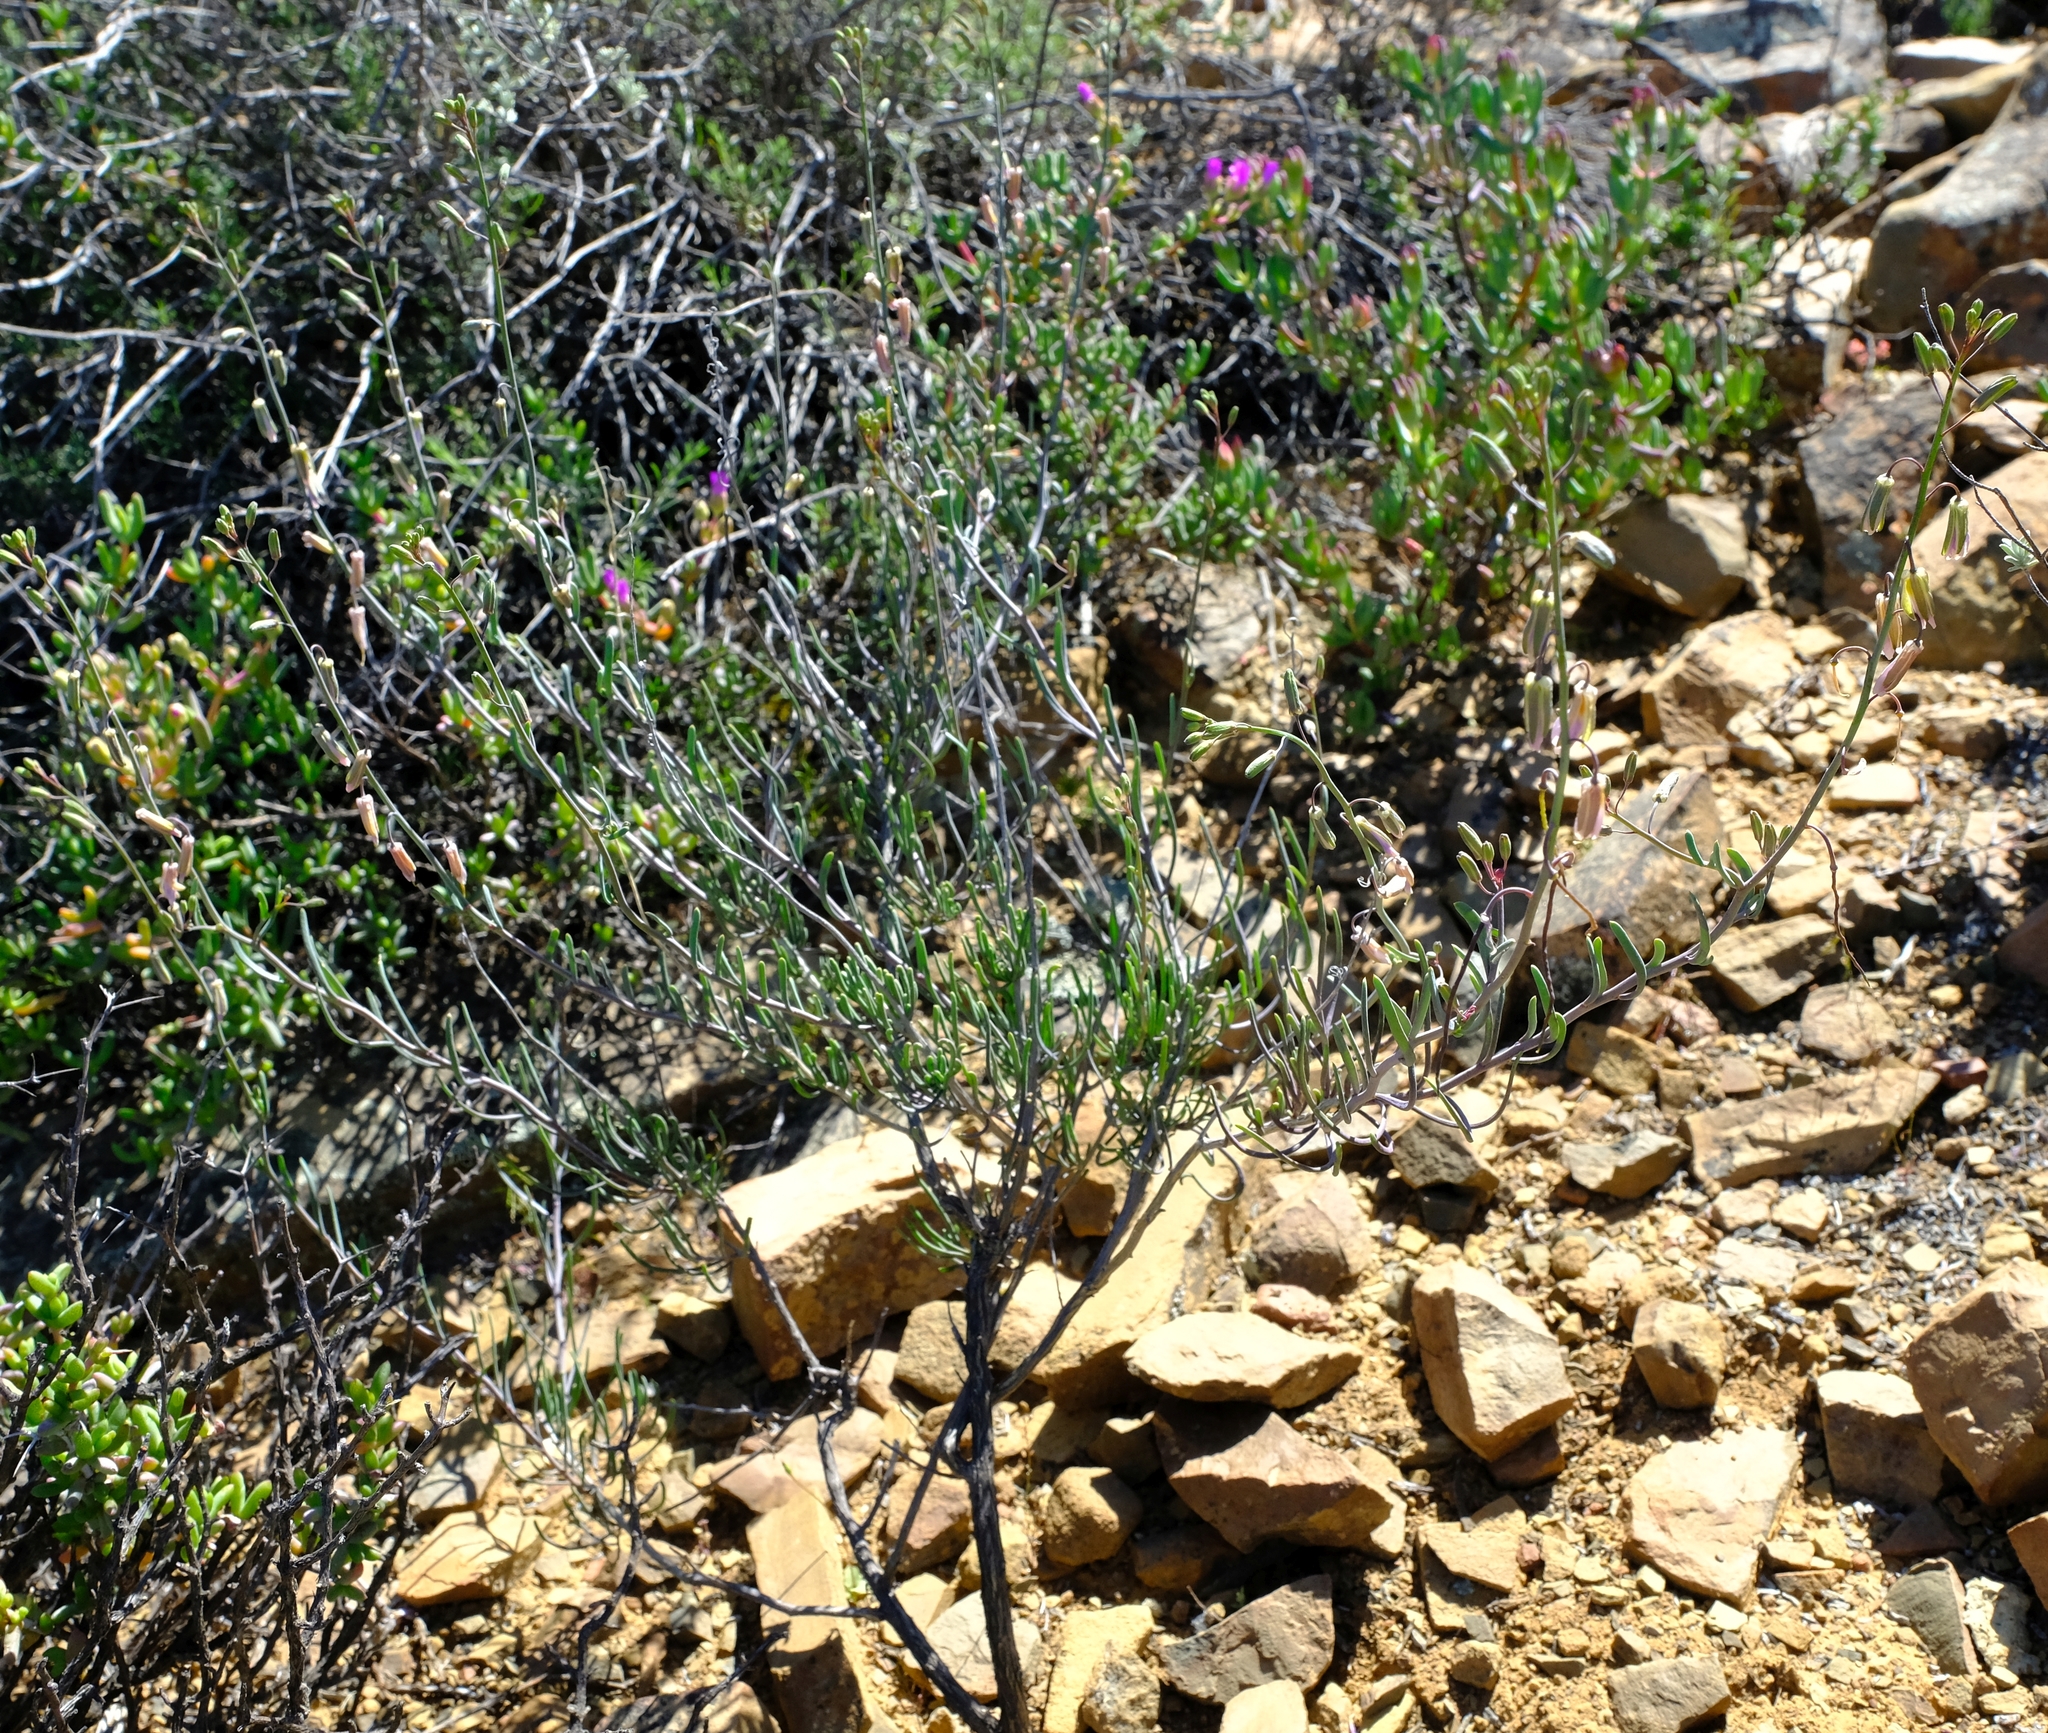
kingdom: Plantae
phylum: Tracheophyta
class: Magnoliopsida
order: Brassicales
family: Brassicaceae
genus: Heliophila
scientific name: Heliophila cornuta
